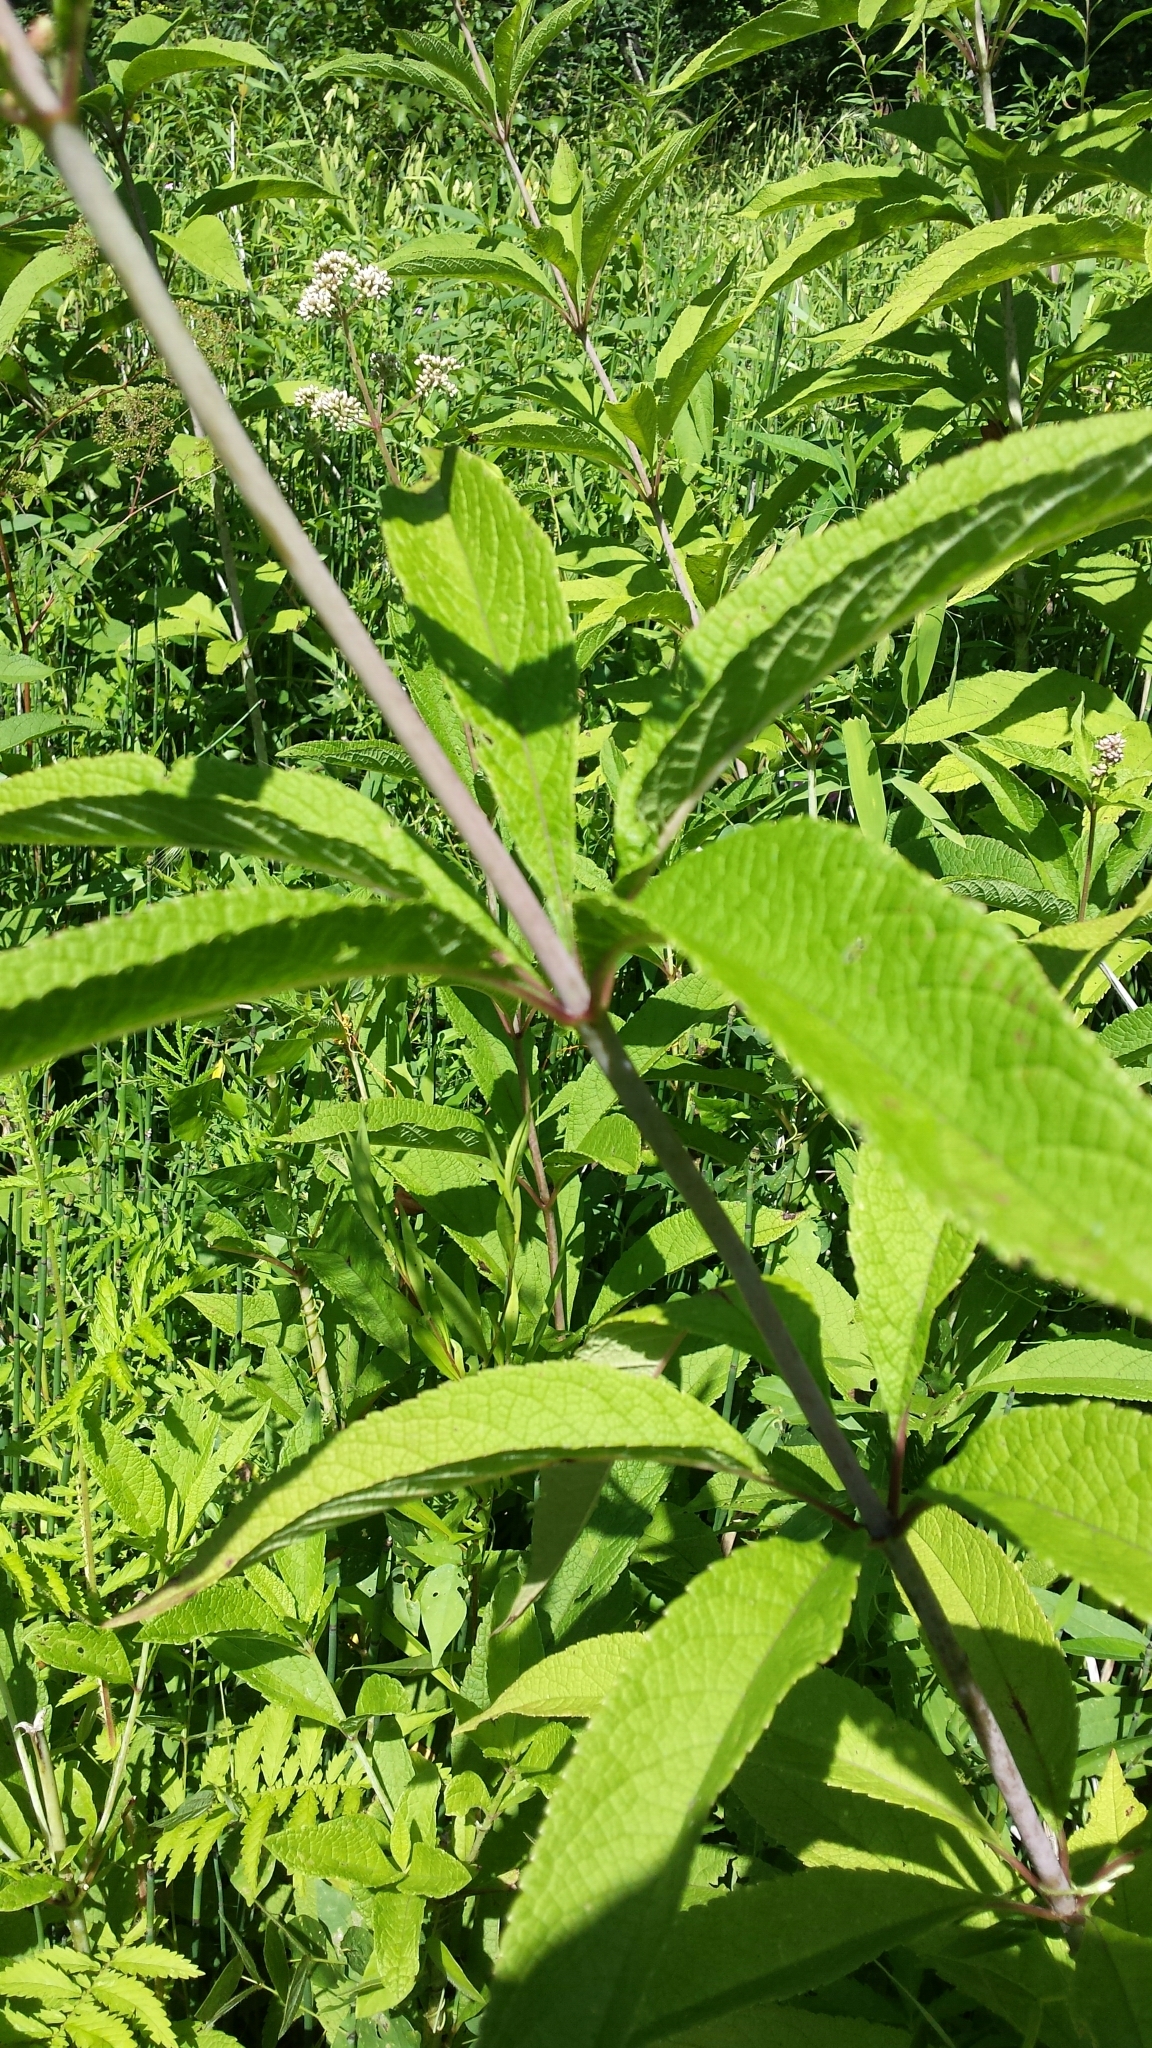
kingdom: Plantae
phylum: Tracheophyta
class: Magnoliopsida
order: Asterales
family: Asteraceae
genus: Eutrochium
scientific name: Eutrochium fistulosum
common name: Trumpetweed
